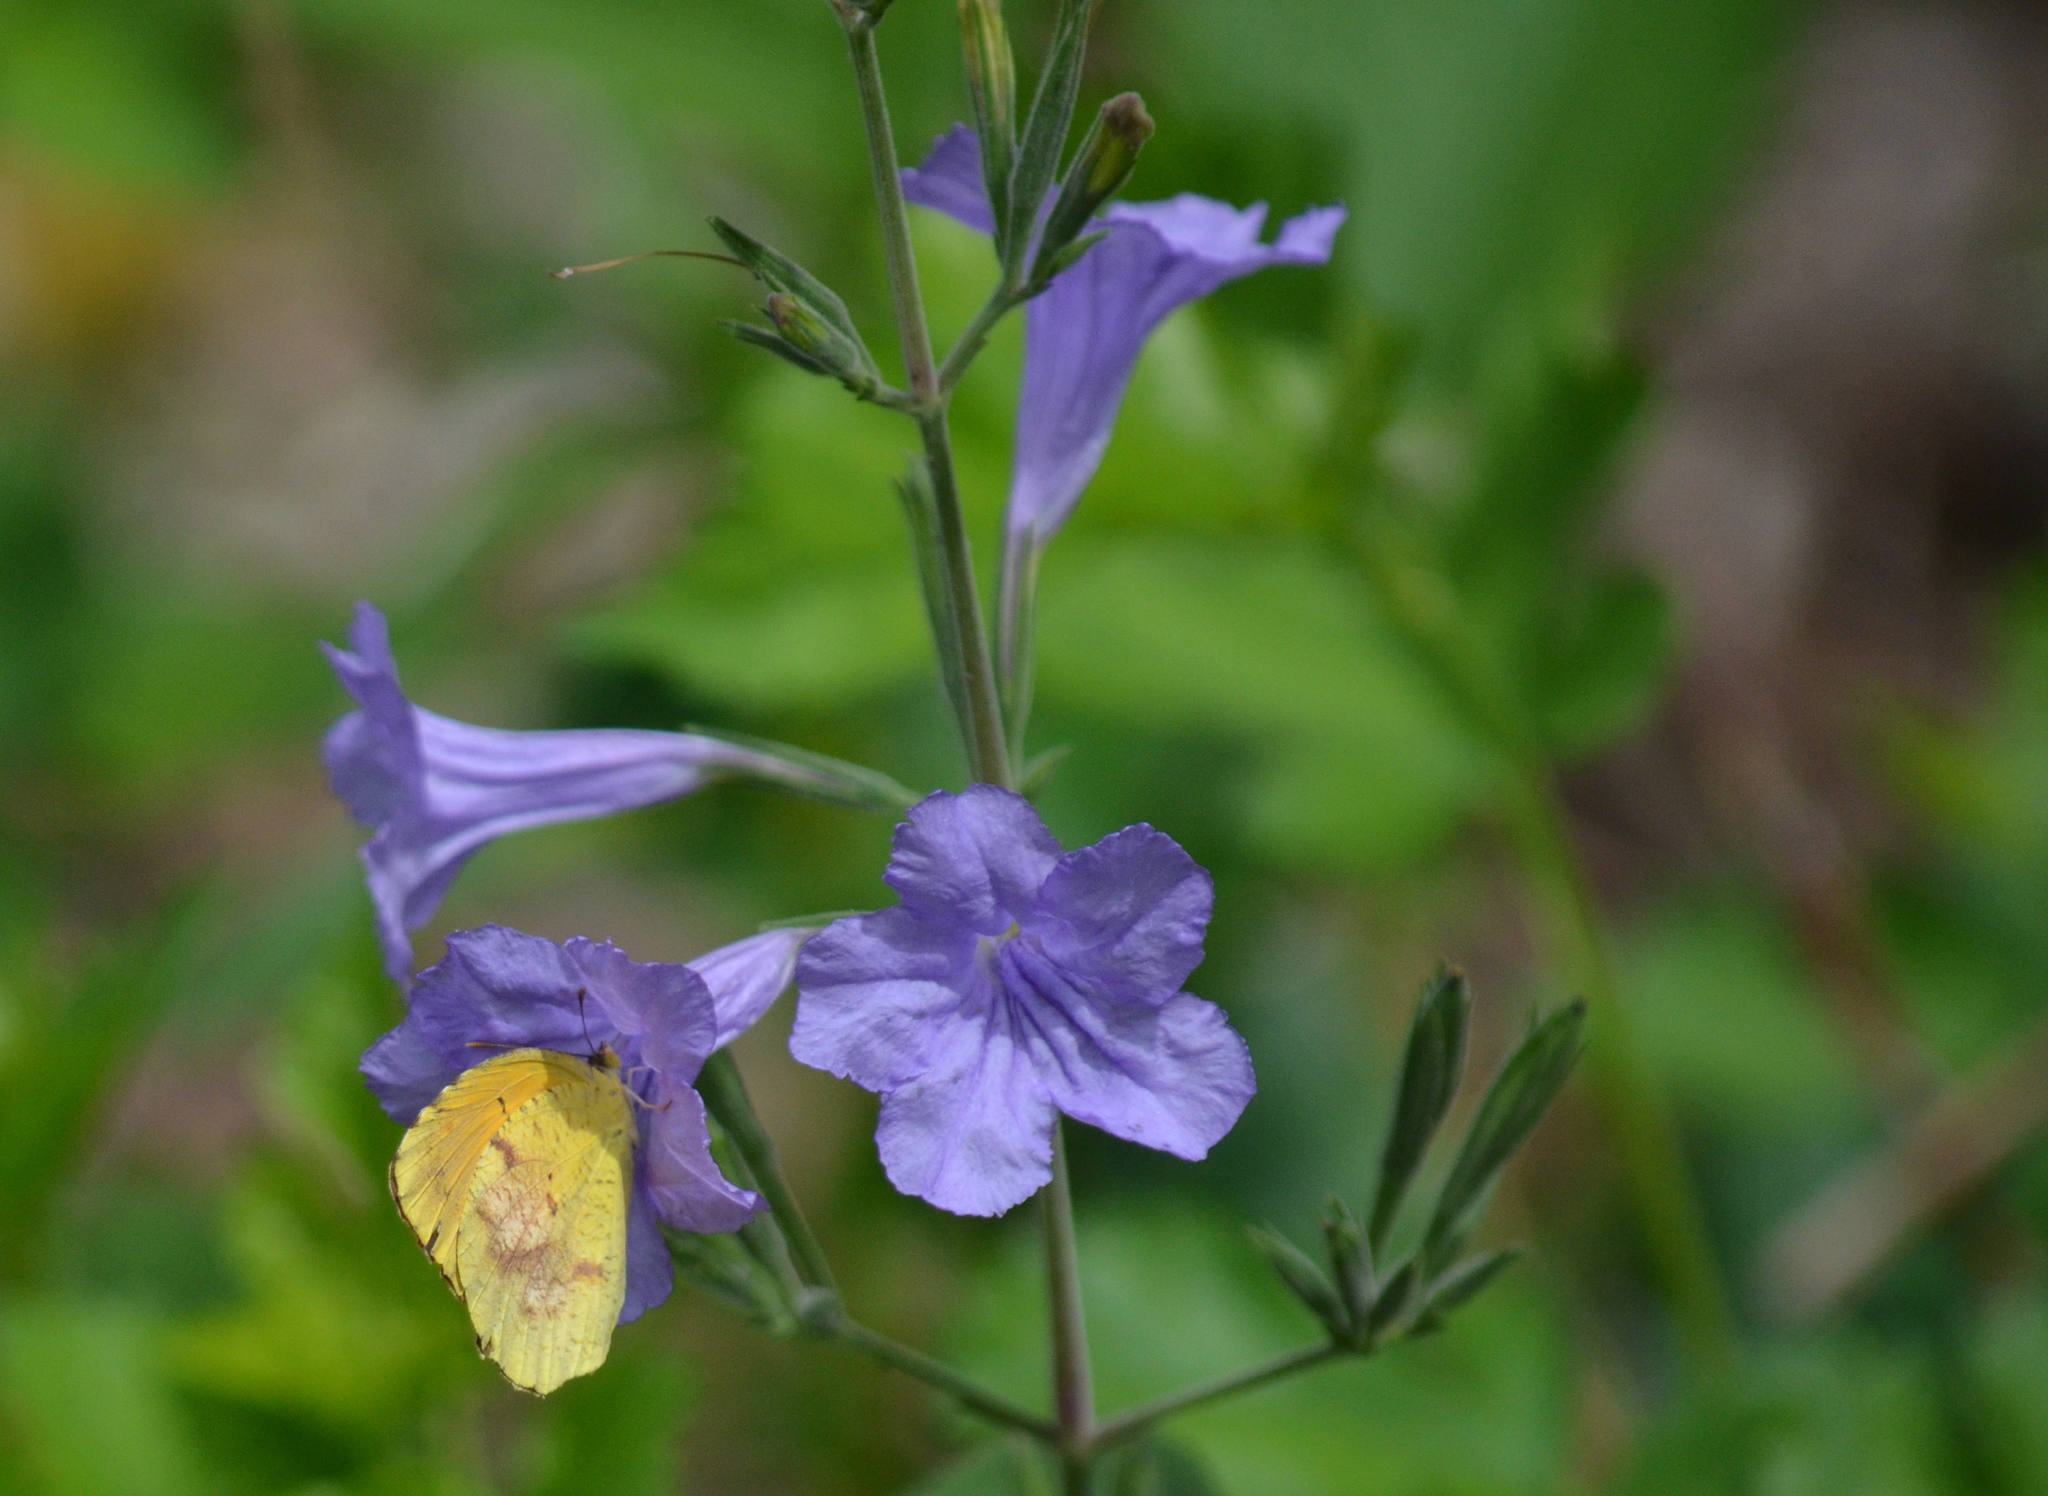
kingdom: Animalia
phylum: Arthropoda
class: Insecta
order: Lepidoptera
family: Pieridae
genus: Abaeis
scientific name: Abaeis nicippe
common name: Sleepy orange
